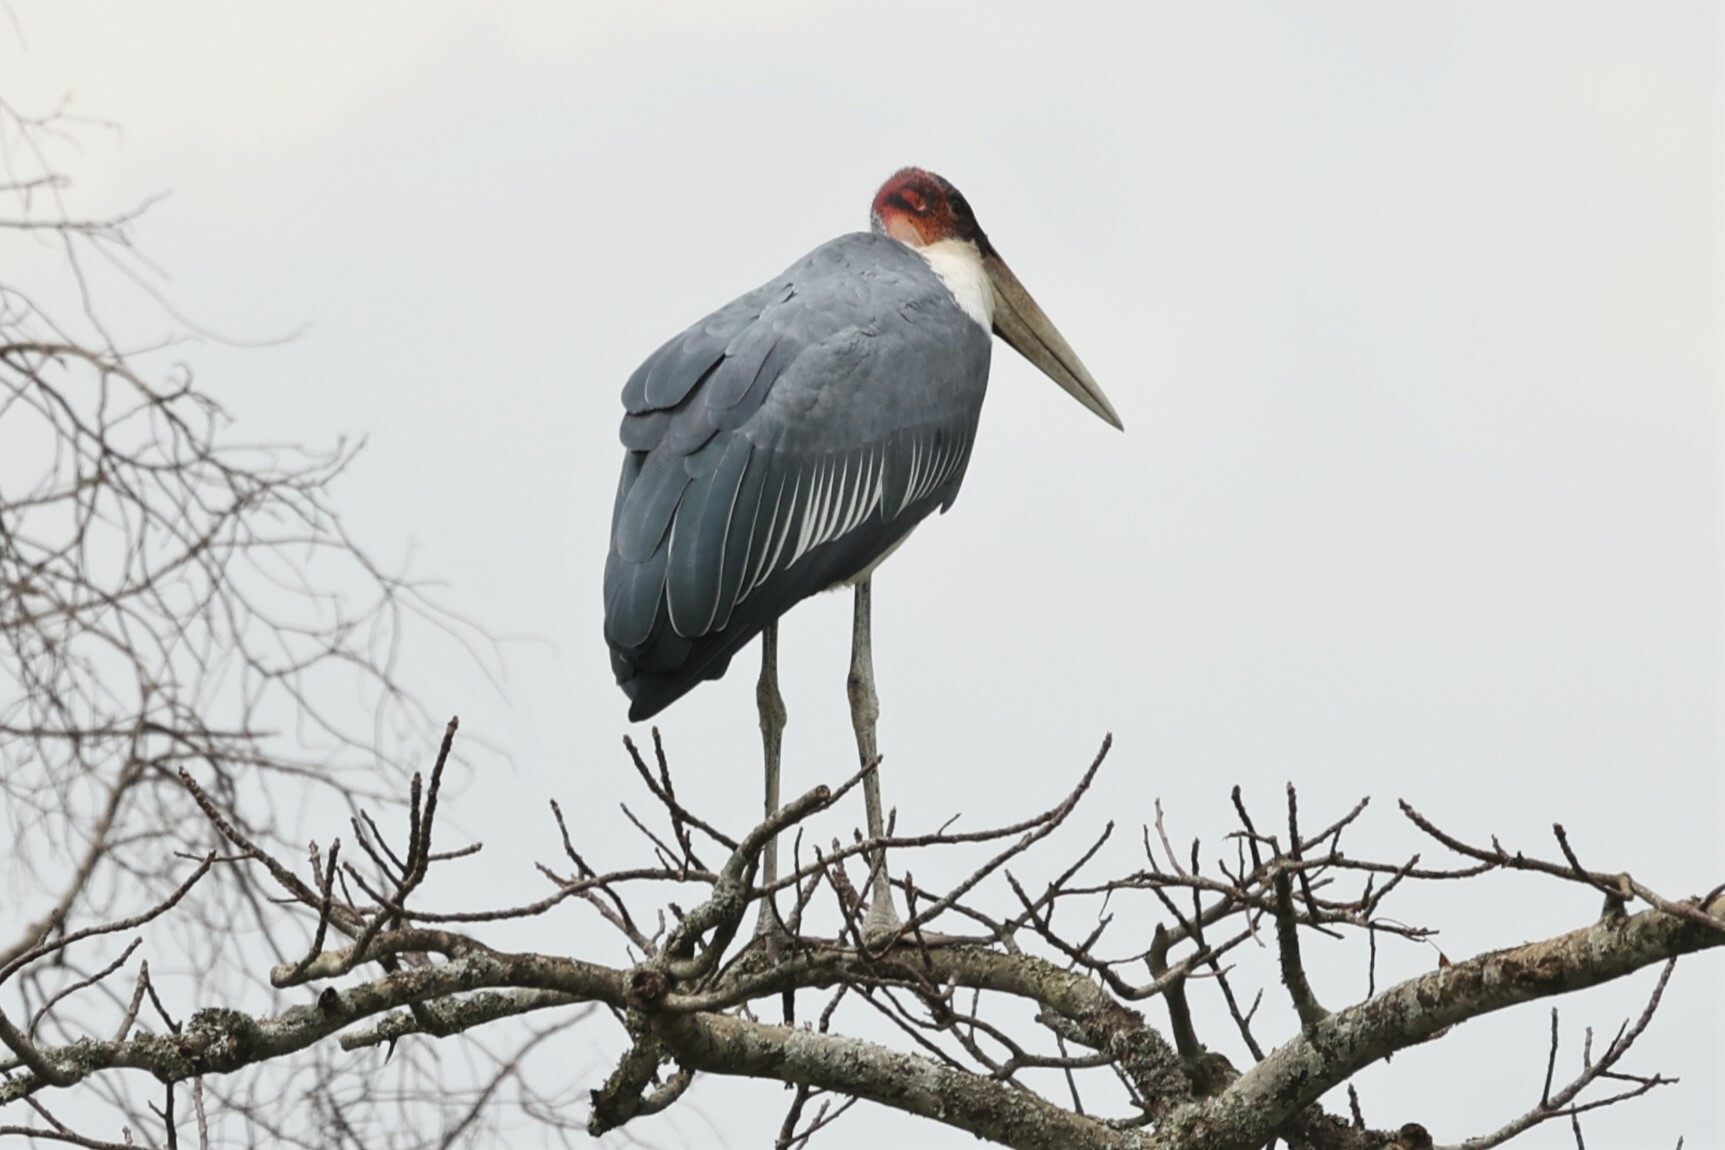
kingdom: Animalia
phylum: Chordata
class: Aves
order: Ciconiiformes
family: Ciconiidae
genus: Leptoptilos
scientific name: Leptoptilos crumenifer
